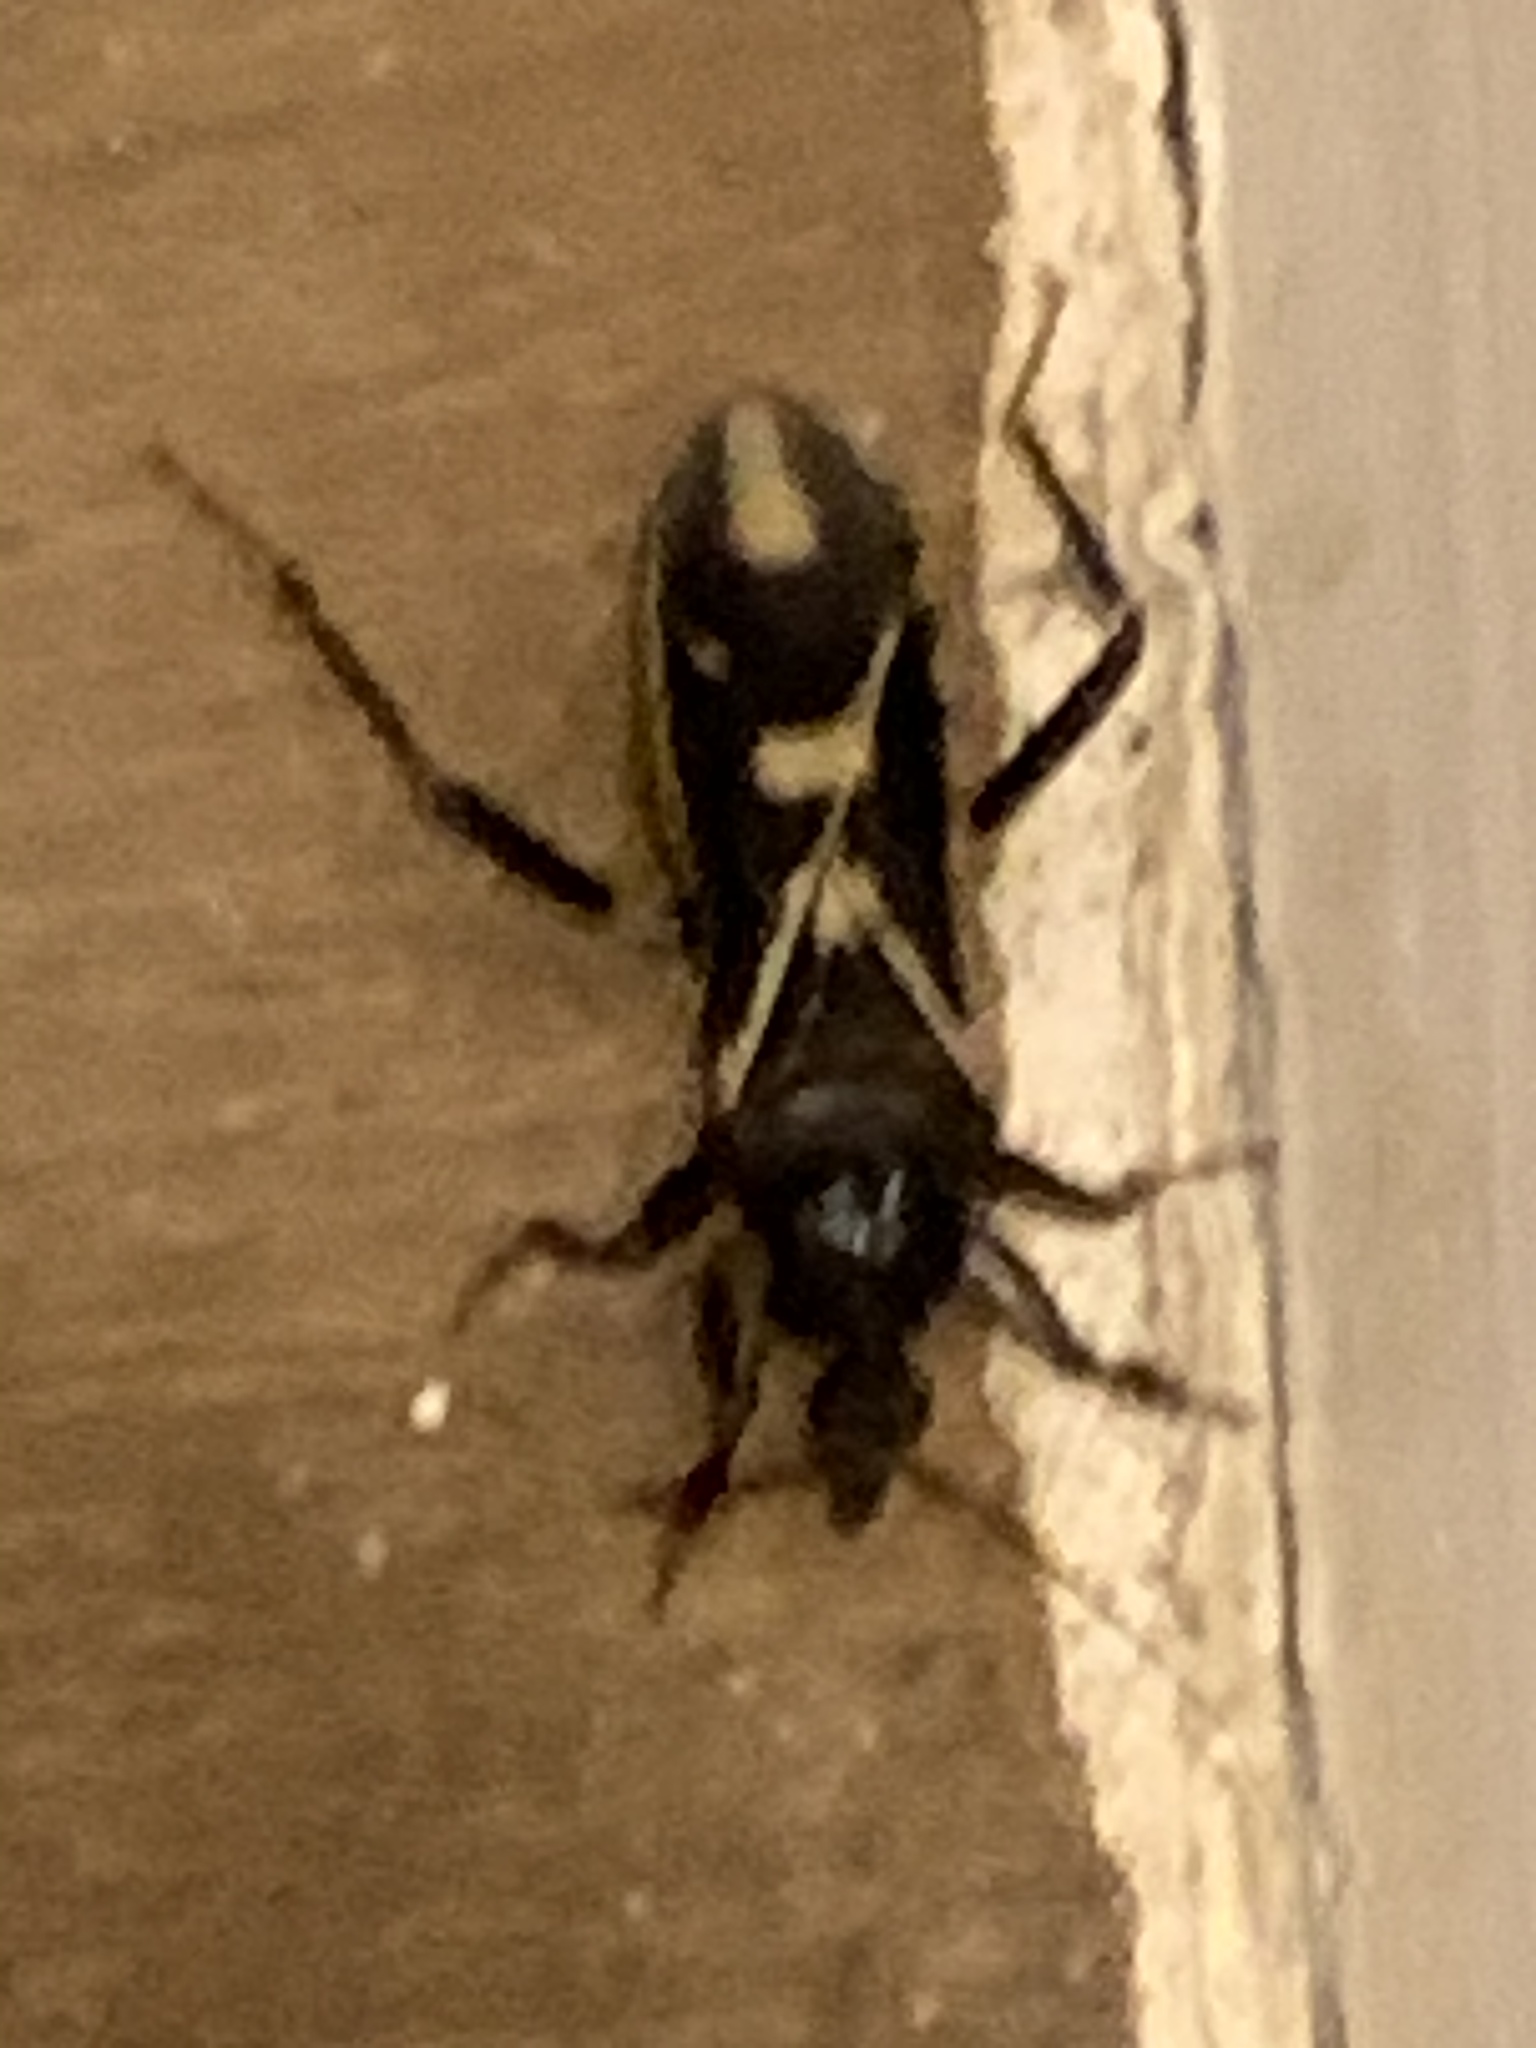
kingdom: Animalia
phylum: Arthropoda
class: Insecta
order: Hemiptera
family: Reduviidae
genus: Rasahus
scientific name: Rasahus sulcicollis
